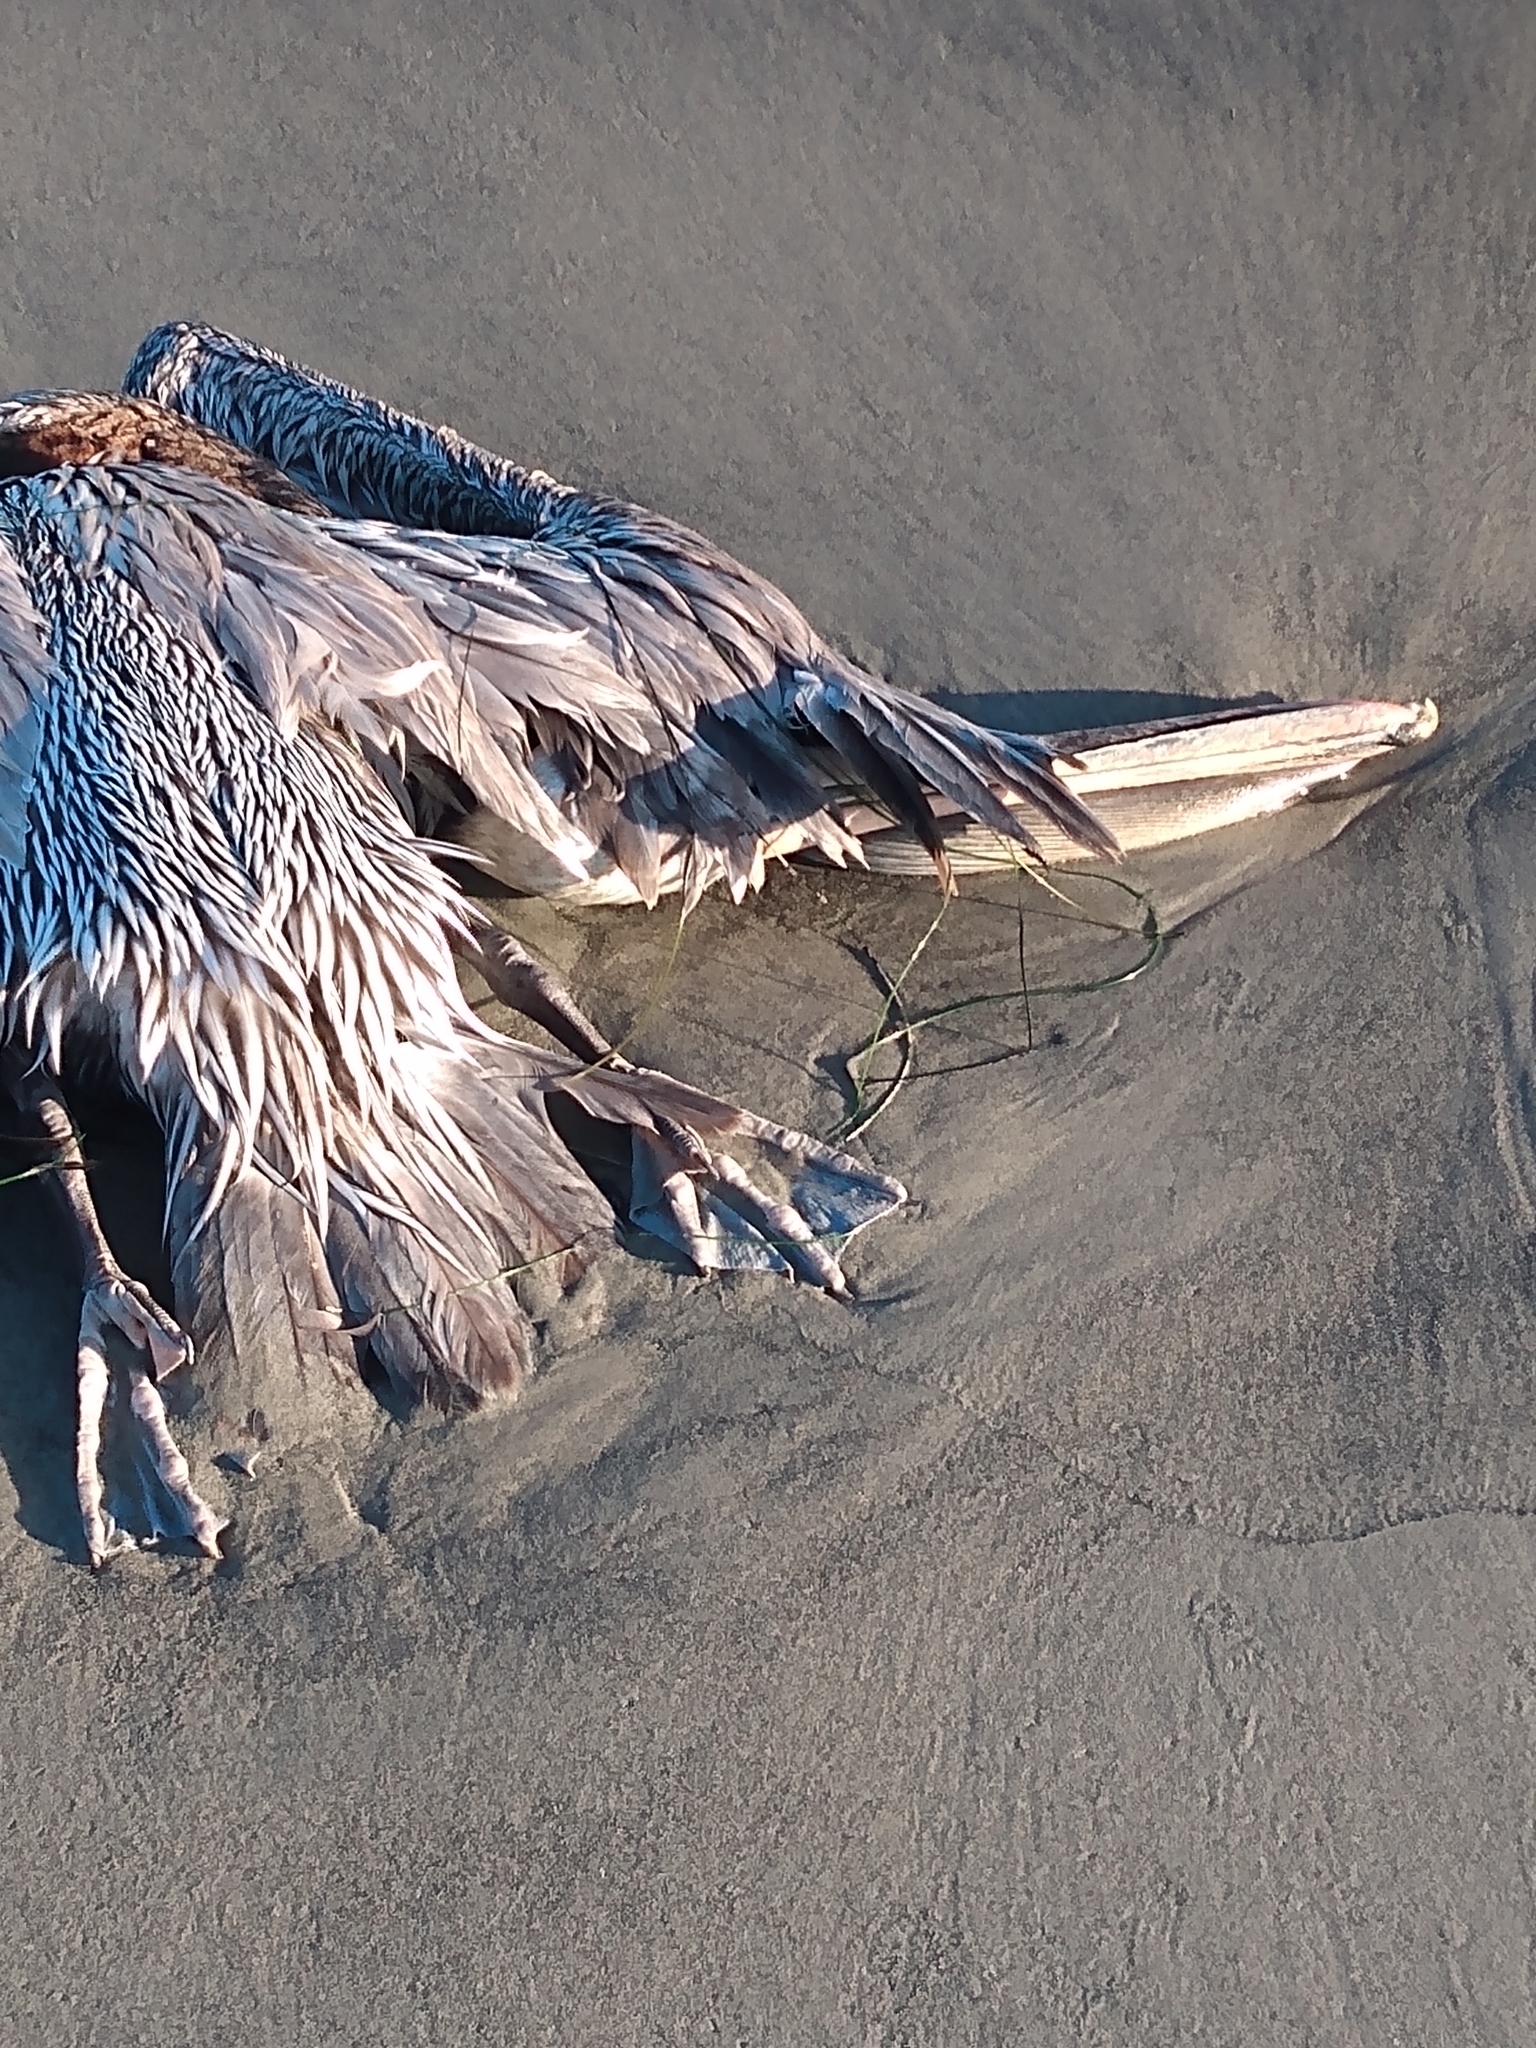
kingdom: Animalia
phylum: Chordata
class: Aves
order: Pelecaniformes
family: Pelecanidae
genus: Pelecanus
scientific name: Pelecanus occidentalis
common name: Brown pelican
